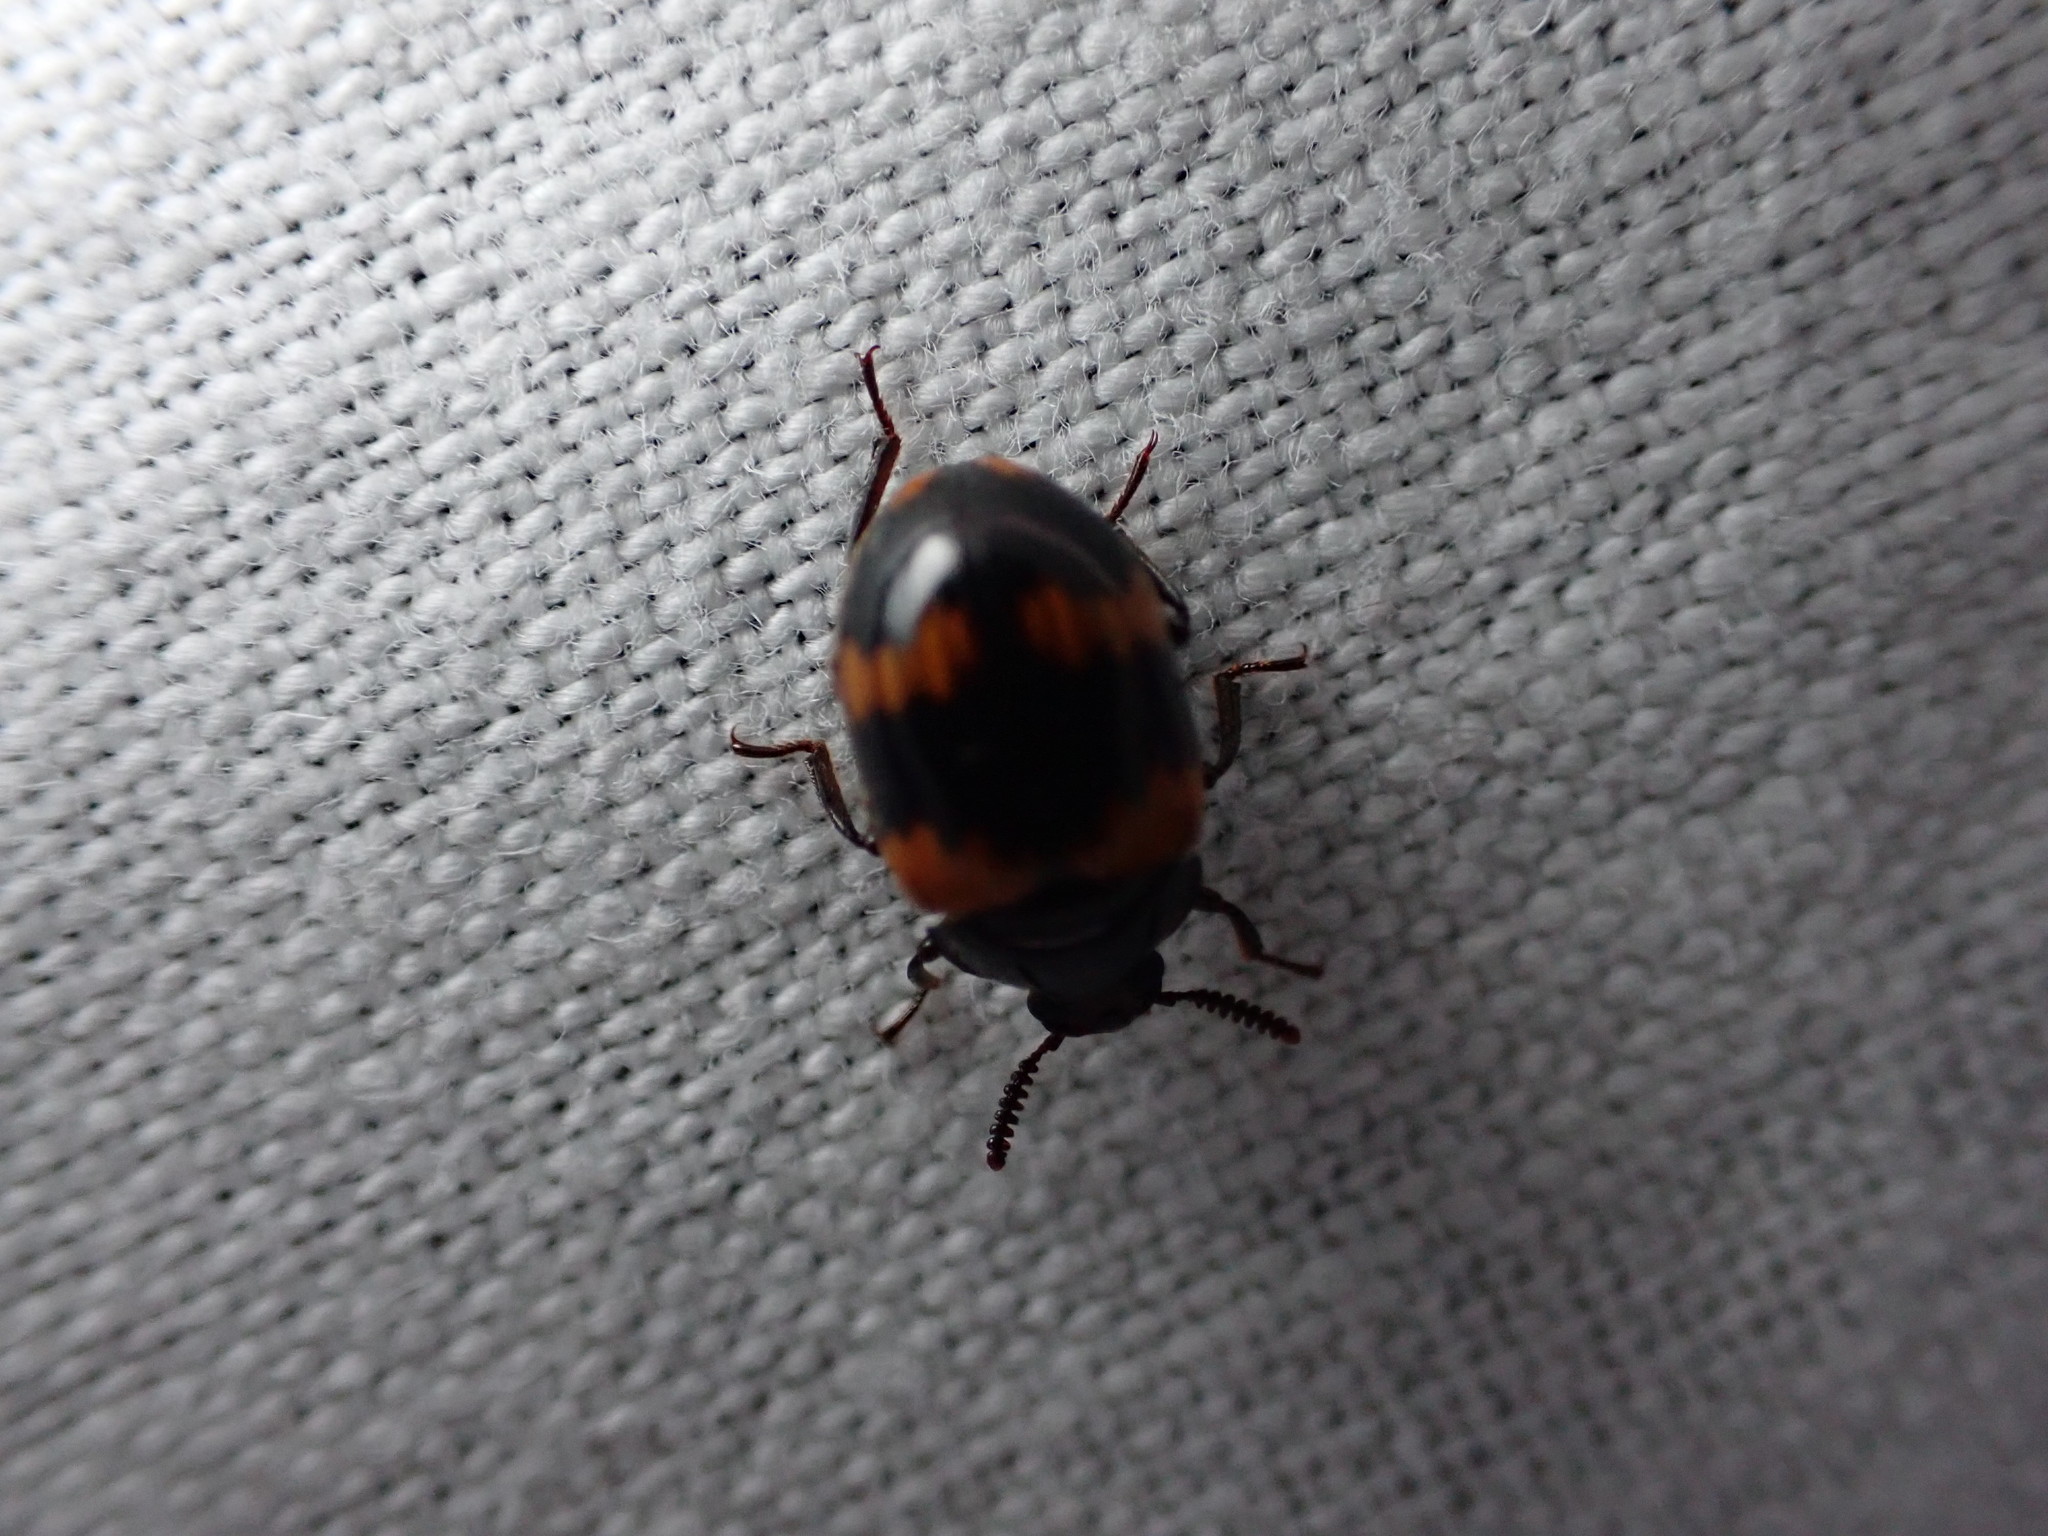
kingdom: Animalia
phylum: Arthropoda
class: Insecta
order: Coleoptera
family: Tenebrionidae
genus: Diaperis
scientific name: Diaperis boleti
